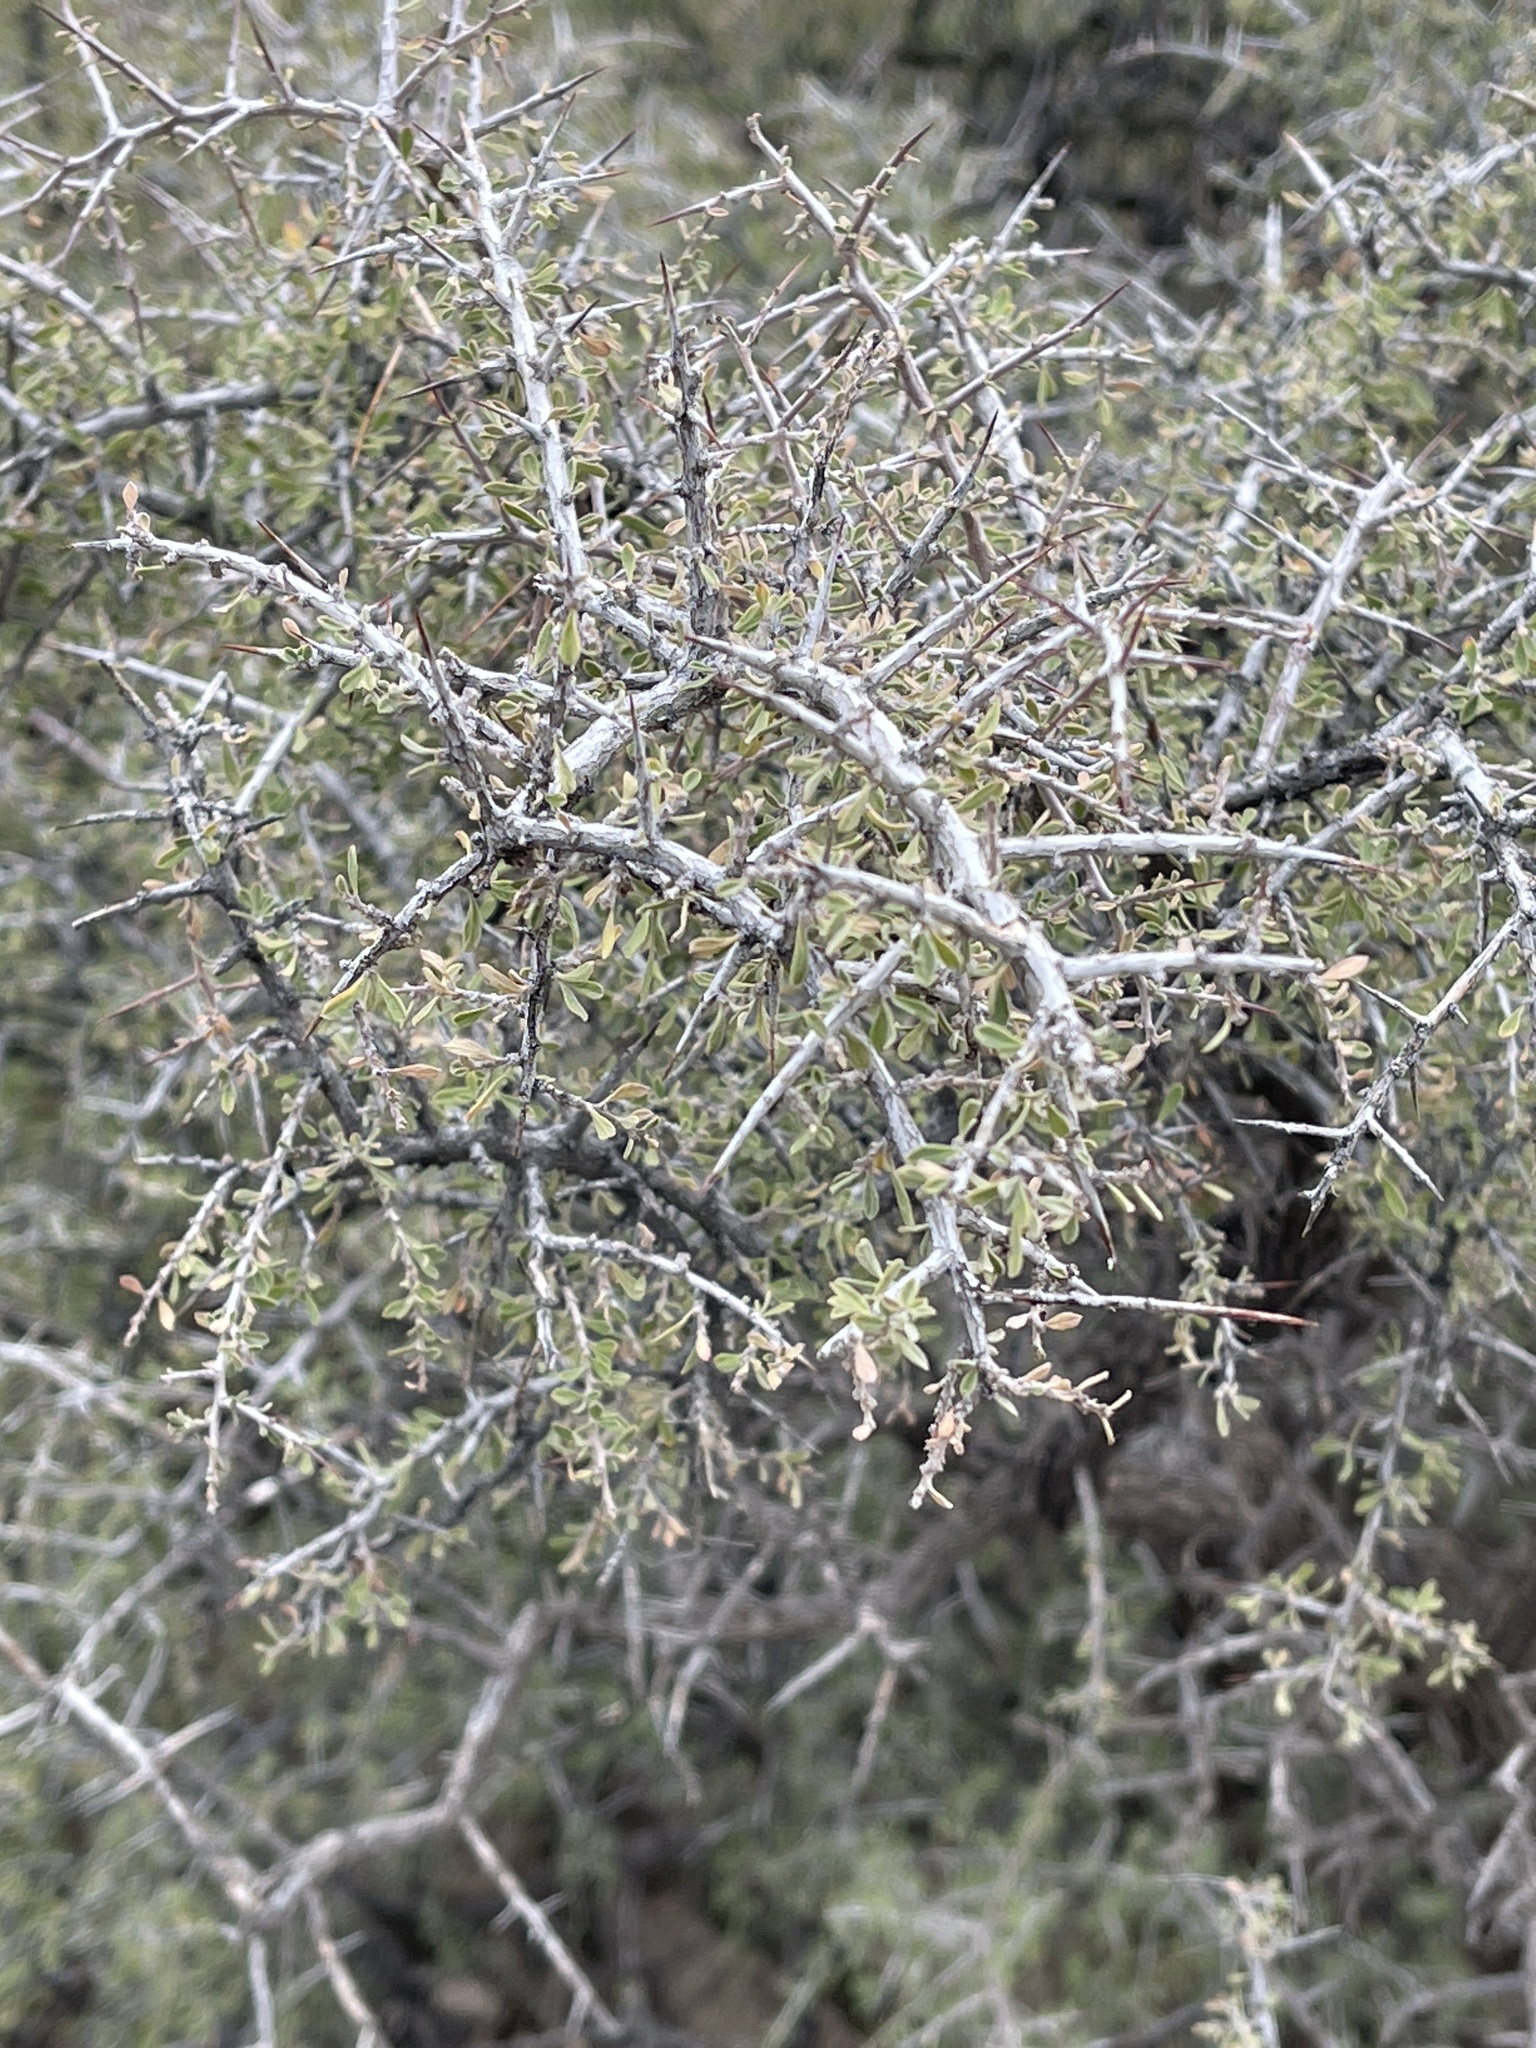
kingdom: Plantae
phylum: Tracheophyta
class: Magnoliopsida
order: Rosales
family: Rhamnaceae
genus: Condalia
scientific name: Condalia warnockii
